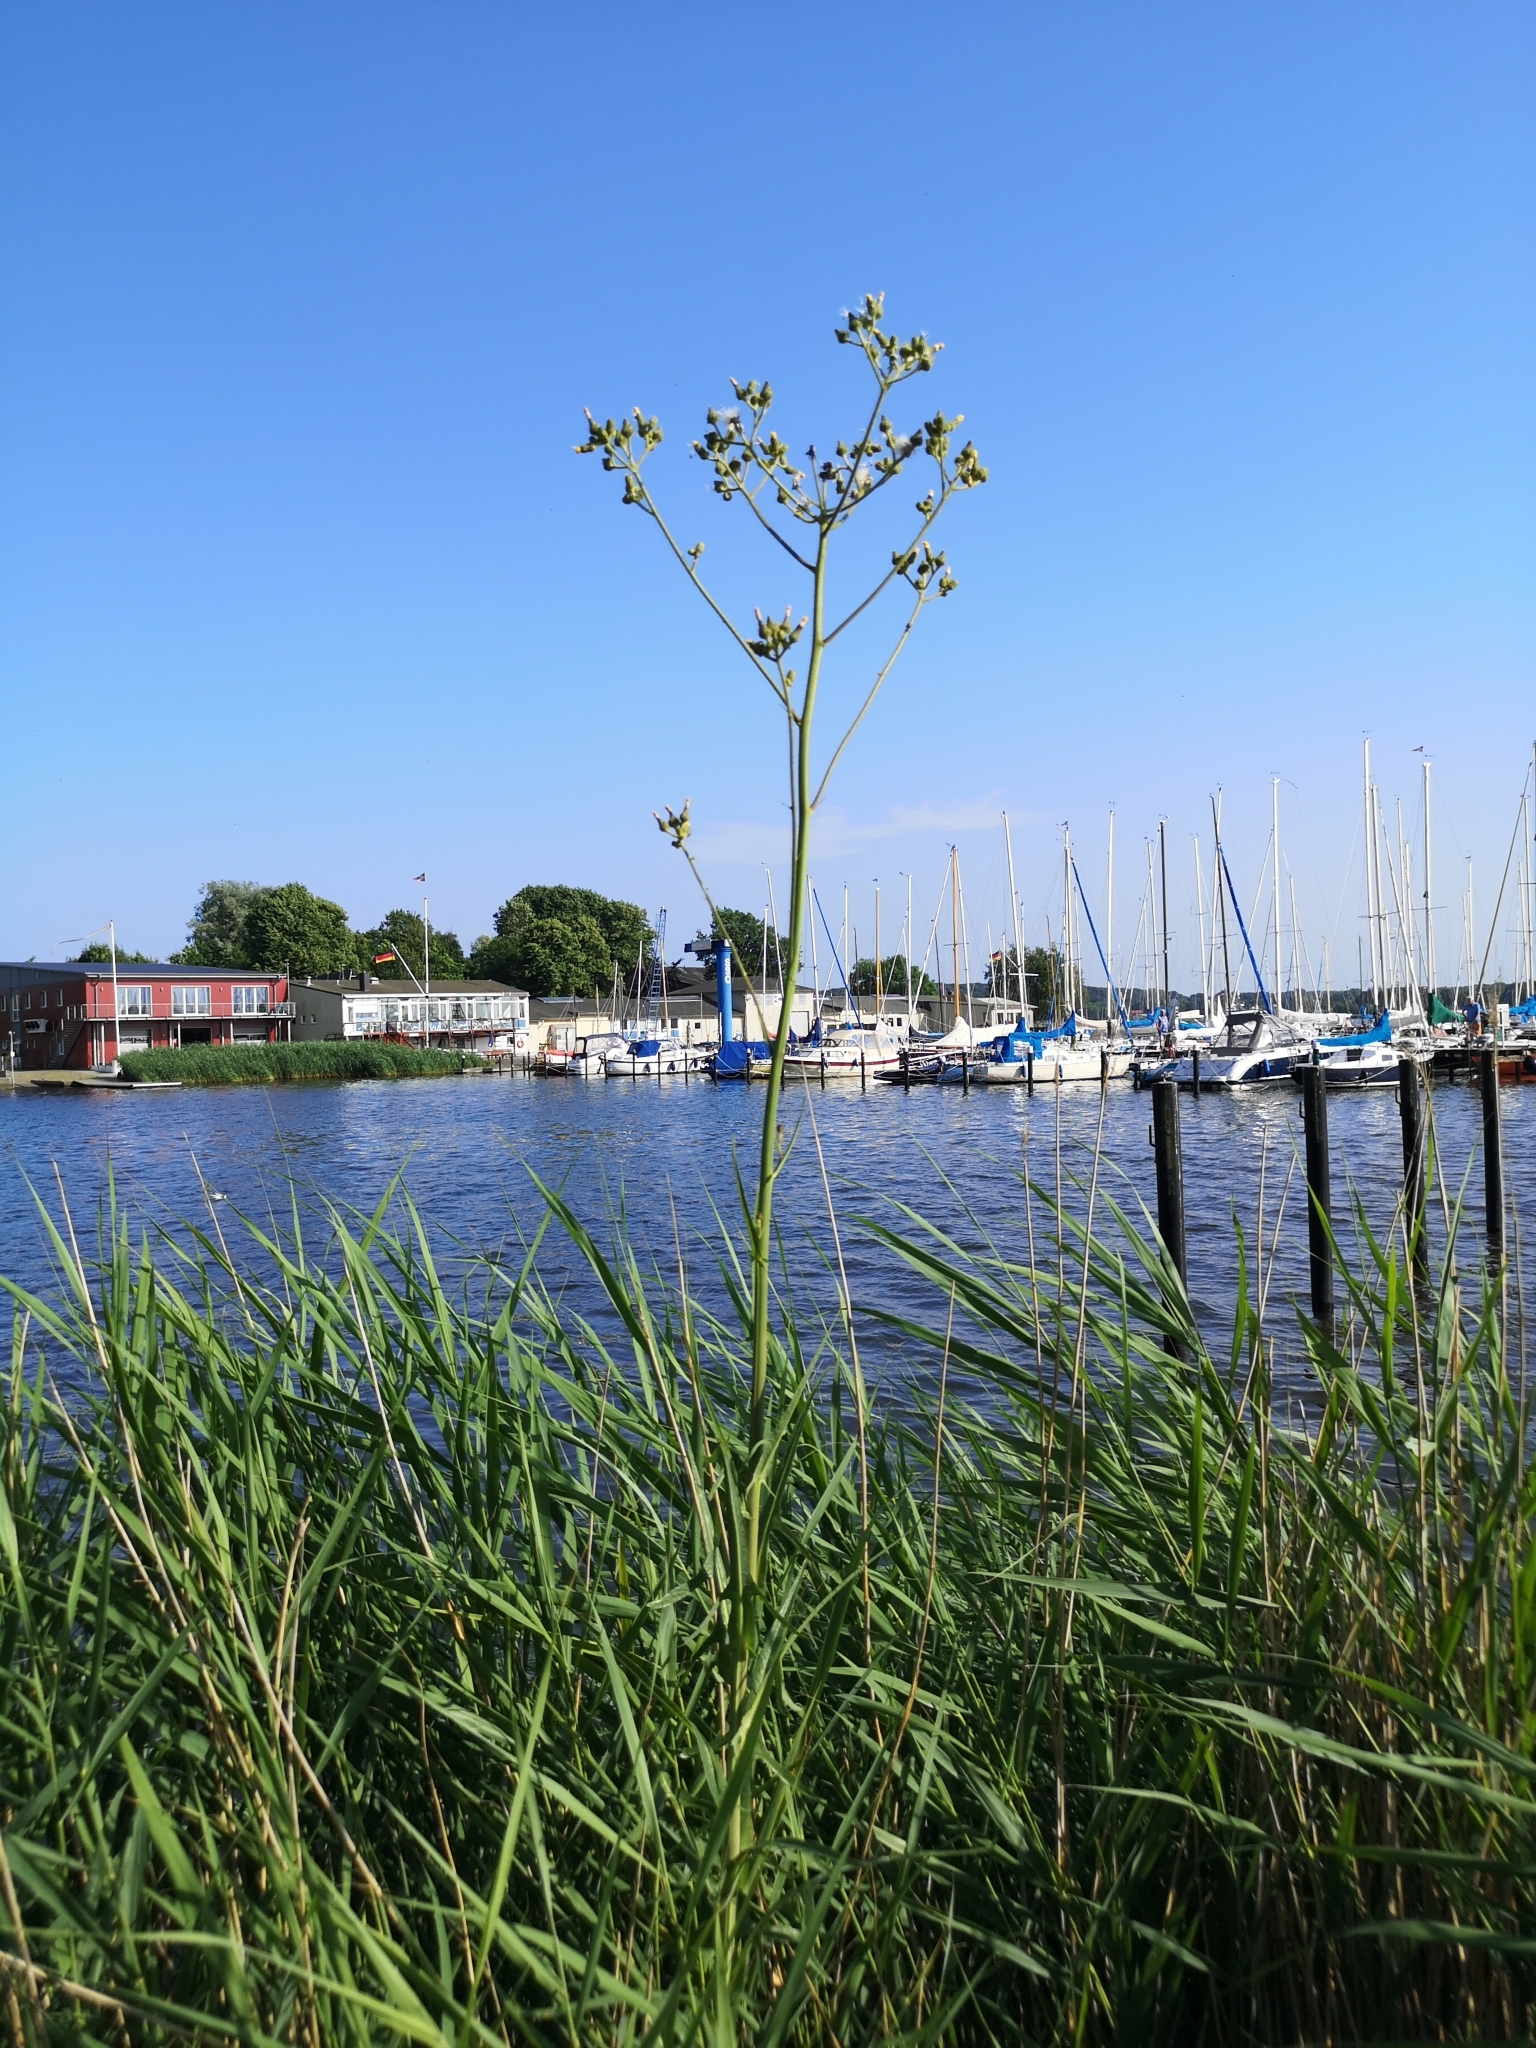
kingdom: Plantae
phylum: Tracheophyta
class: Magnoliopsida
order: Asterales
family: Asteraceae
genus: Sonchus
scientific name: Sonchus palustris
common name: Marsh sow-thistle
